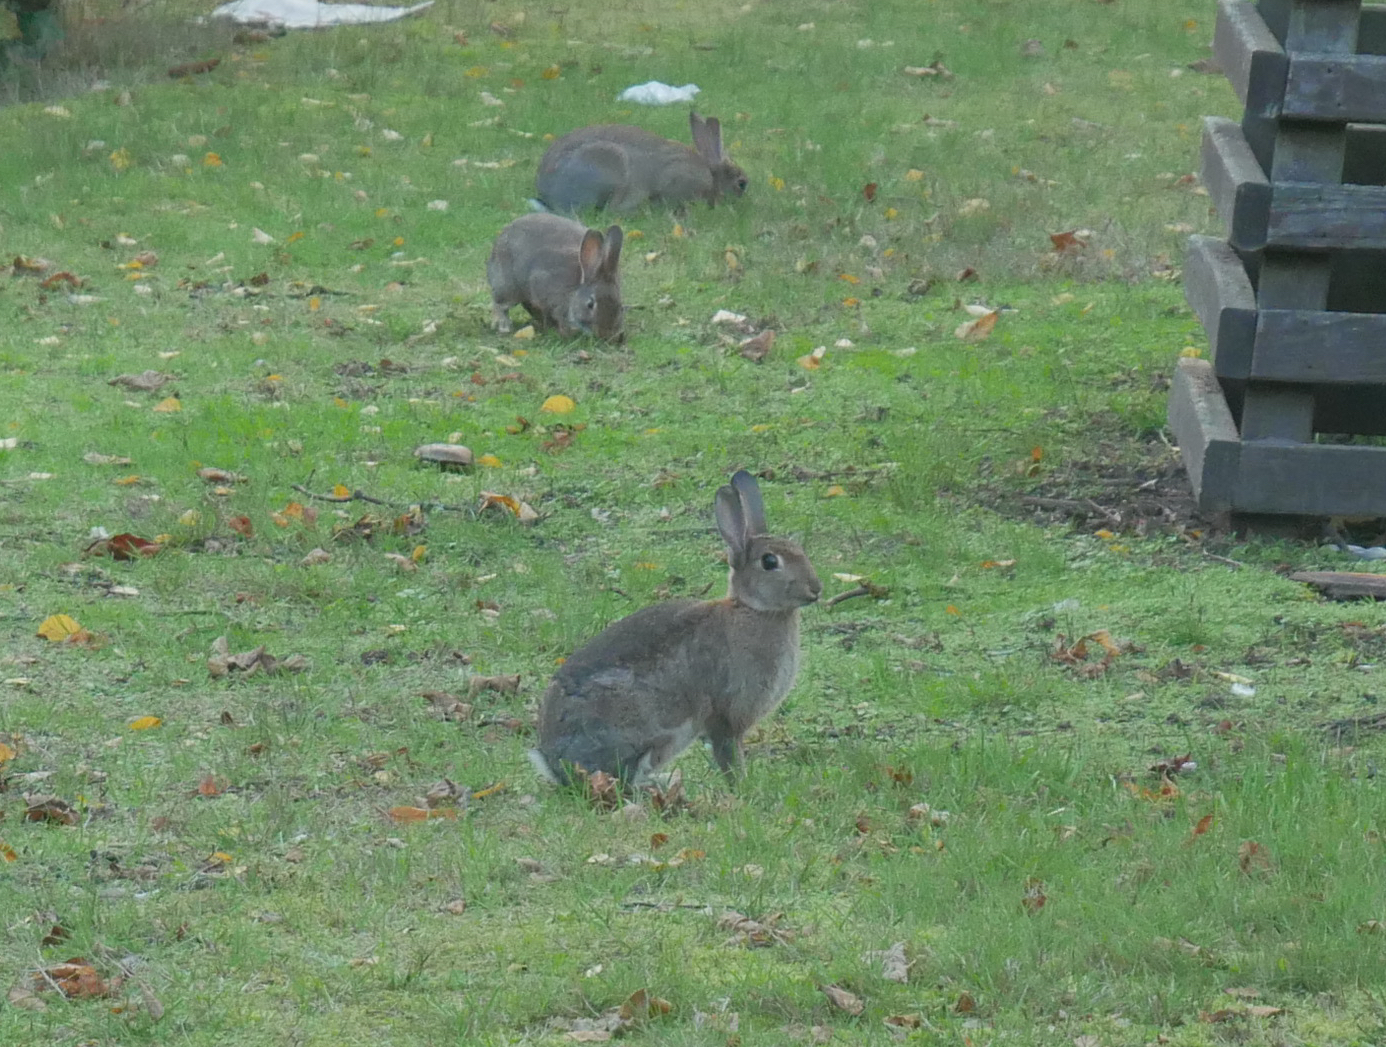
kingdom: Animalia
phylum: Chordata
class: Mammalia
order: Lagomorpha
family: Leporidae
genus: Oryctolagus
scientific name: Oryctolagus cuniculus
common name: European rabbit
